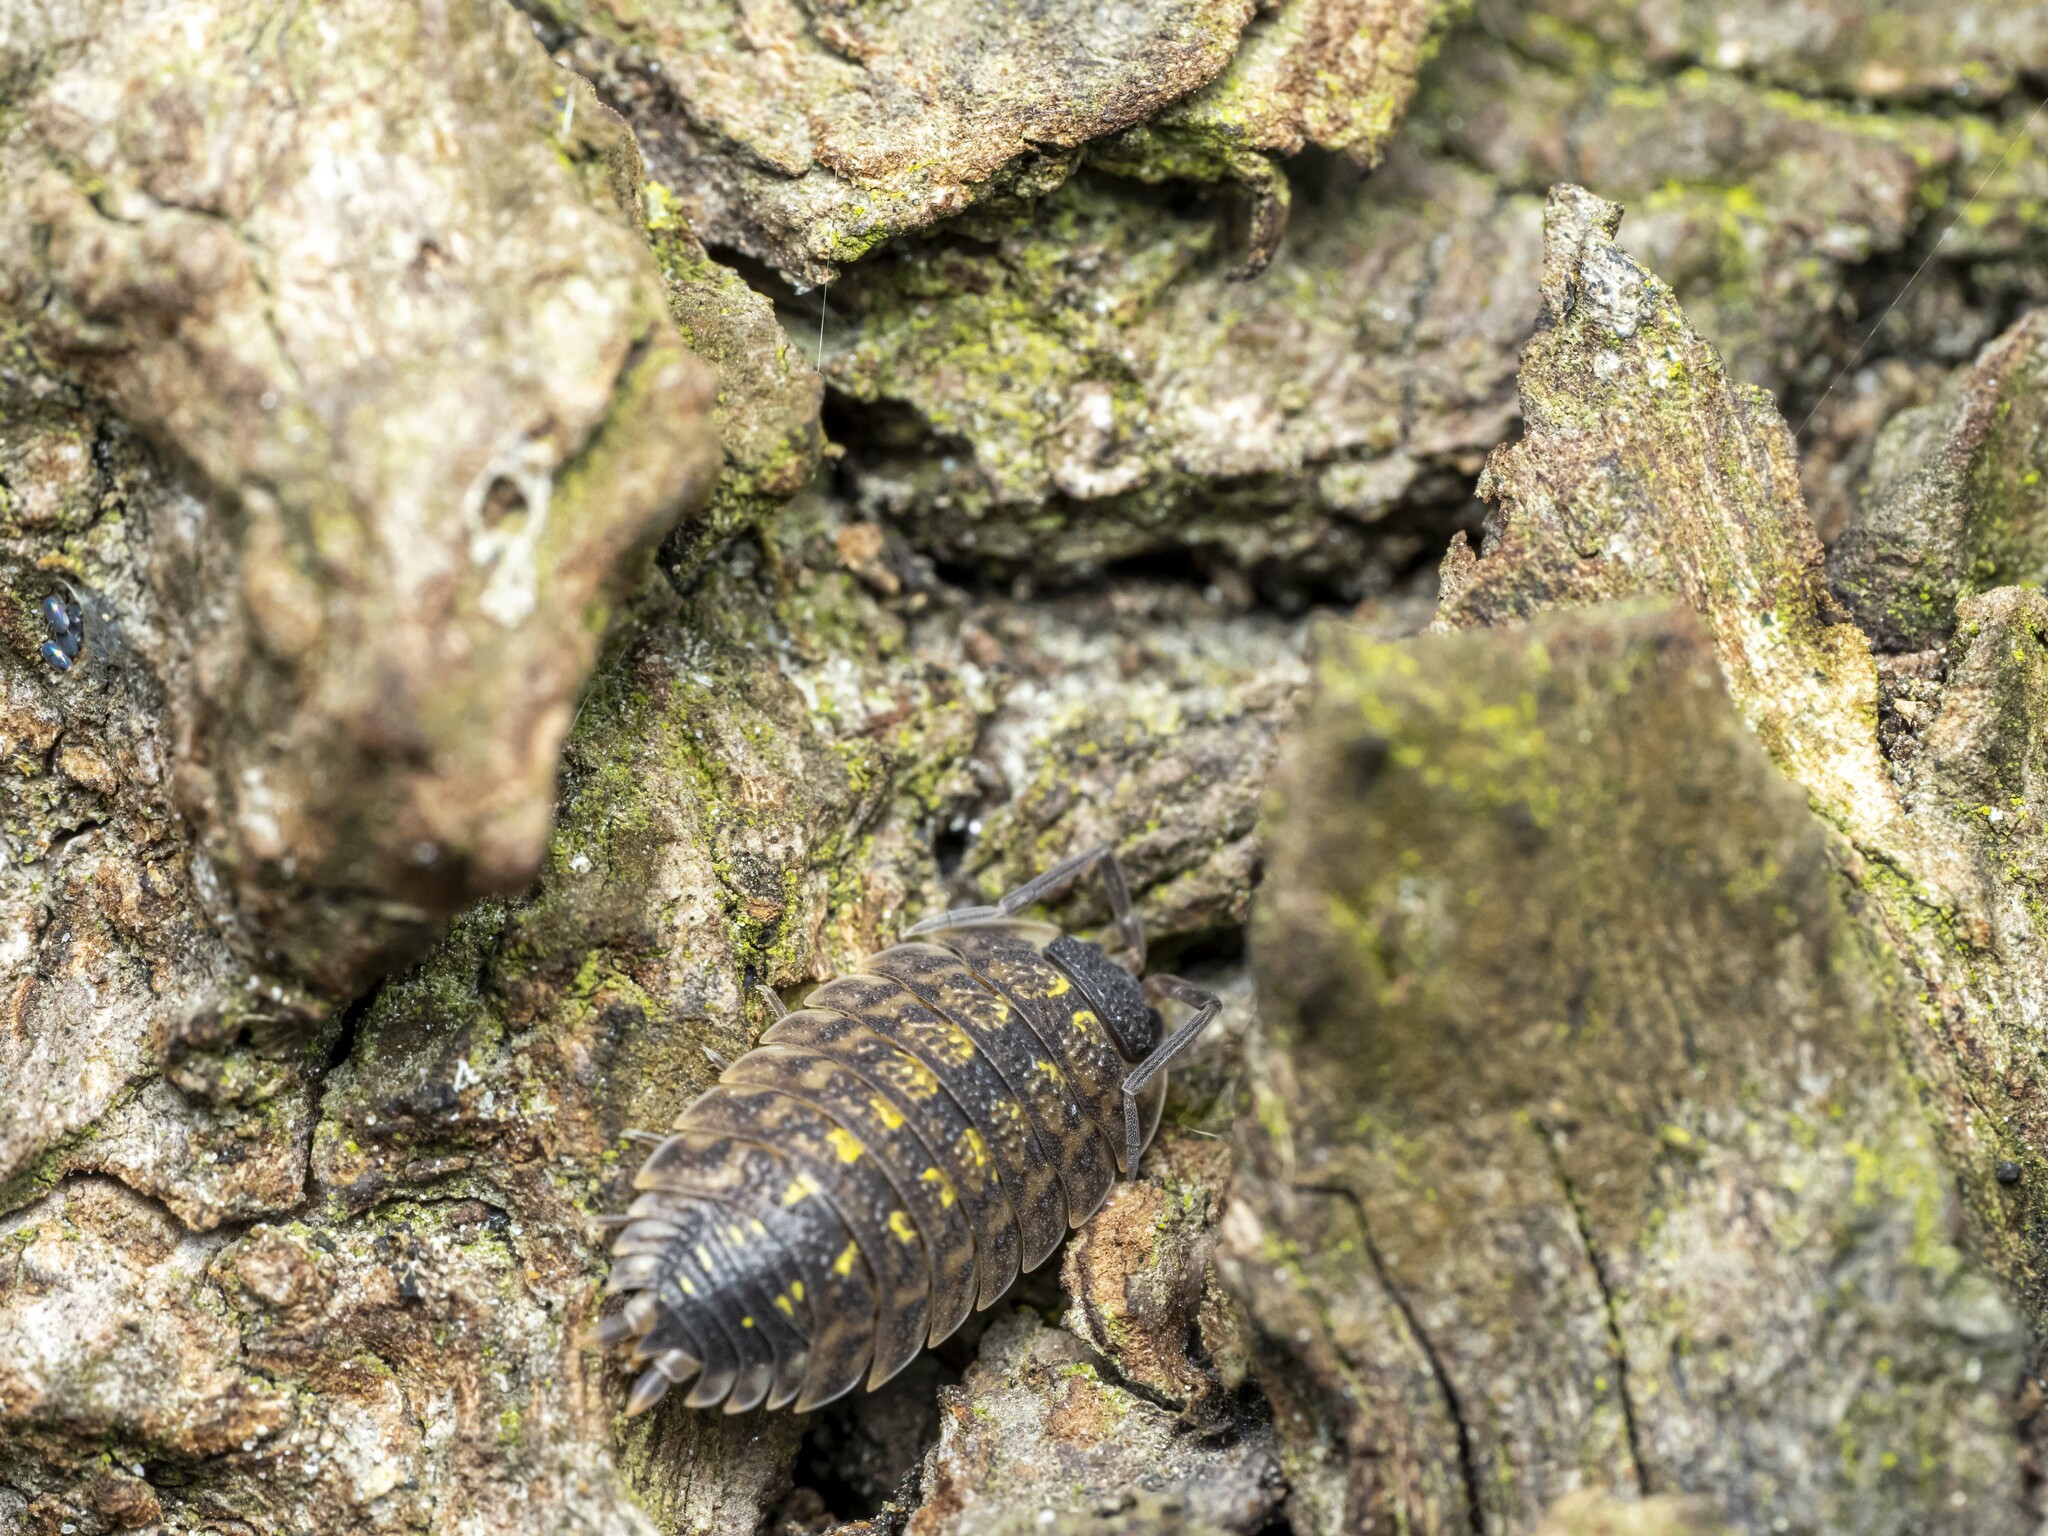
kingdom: Animalia
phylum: Arthropoda
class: Malacostraca
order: Isopoda
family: Porcellionidae
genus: Porcellio
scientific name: Porcellio spinicornis
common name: Painted woodlouse
